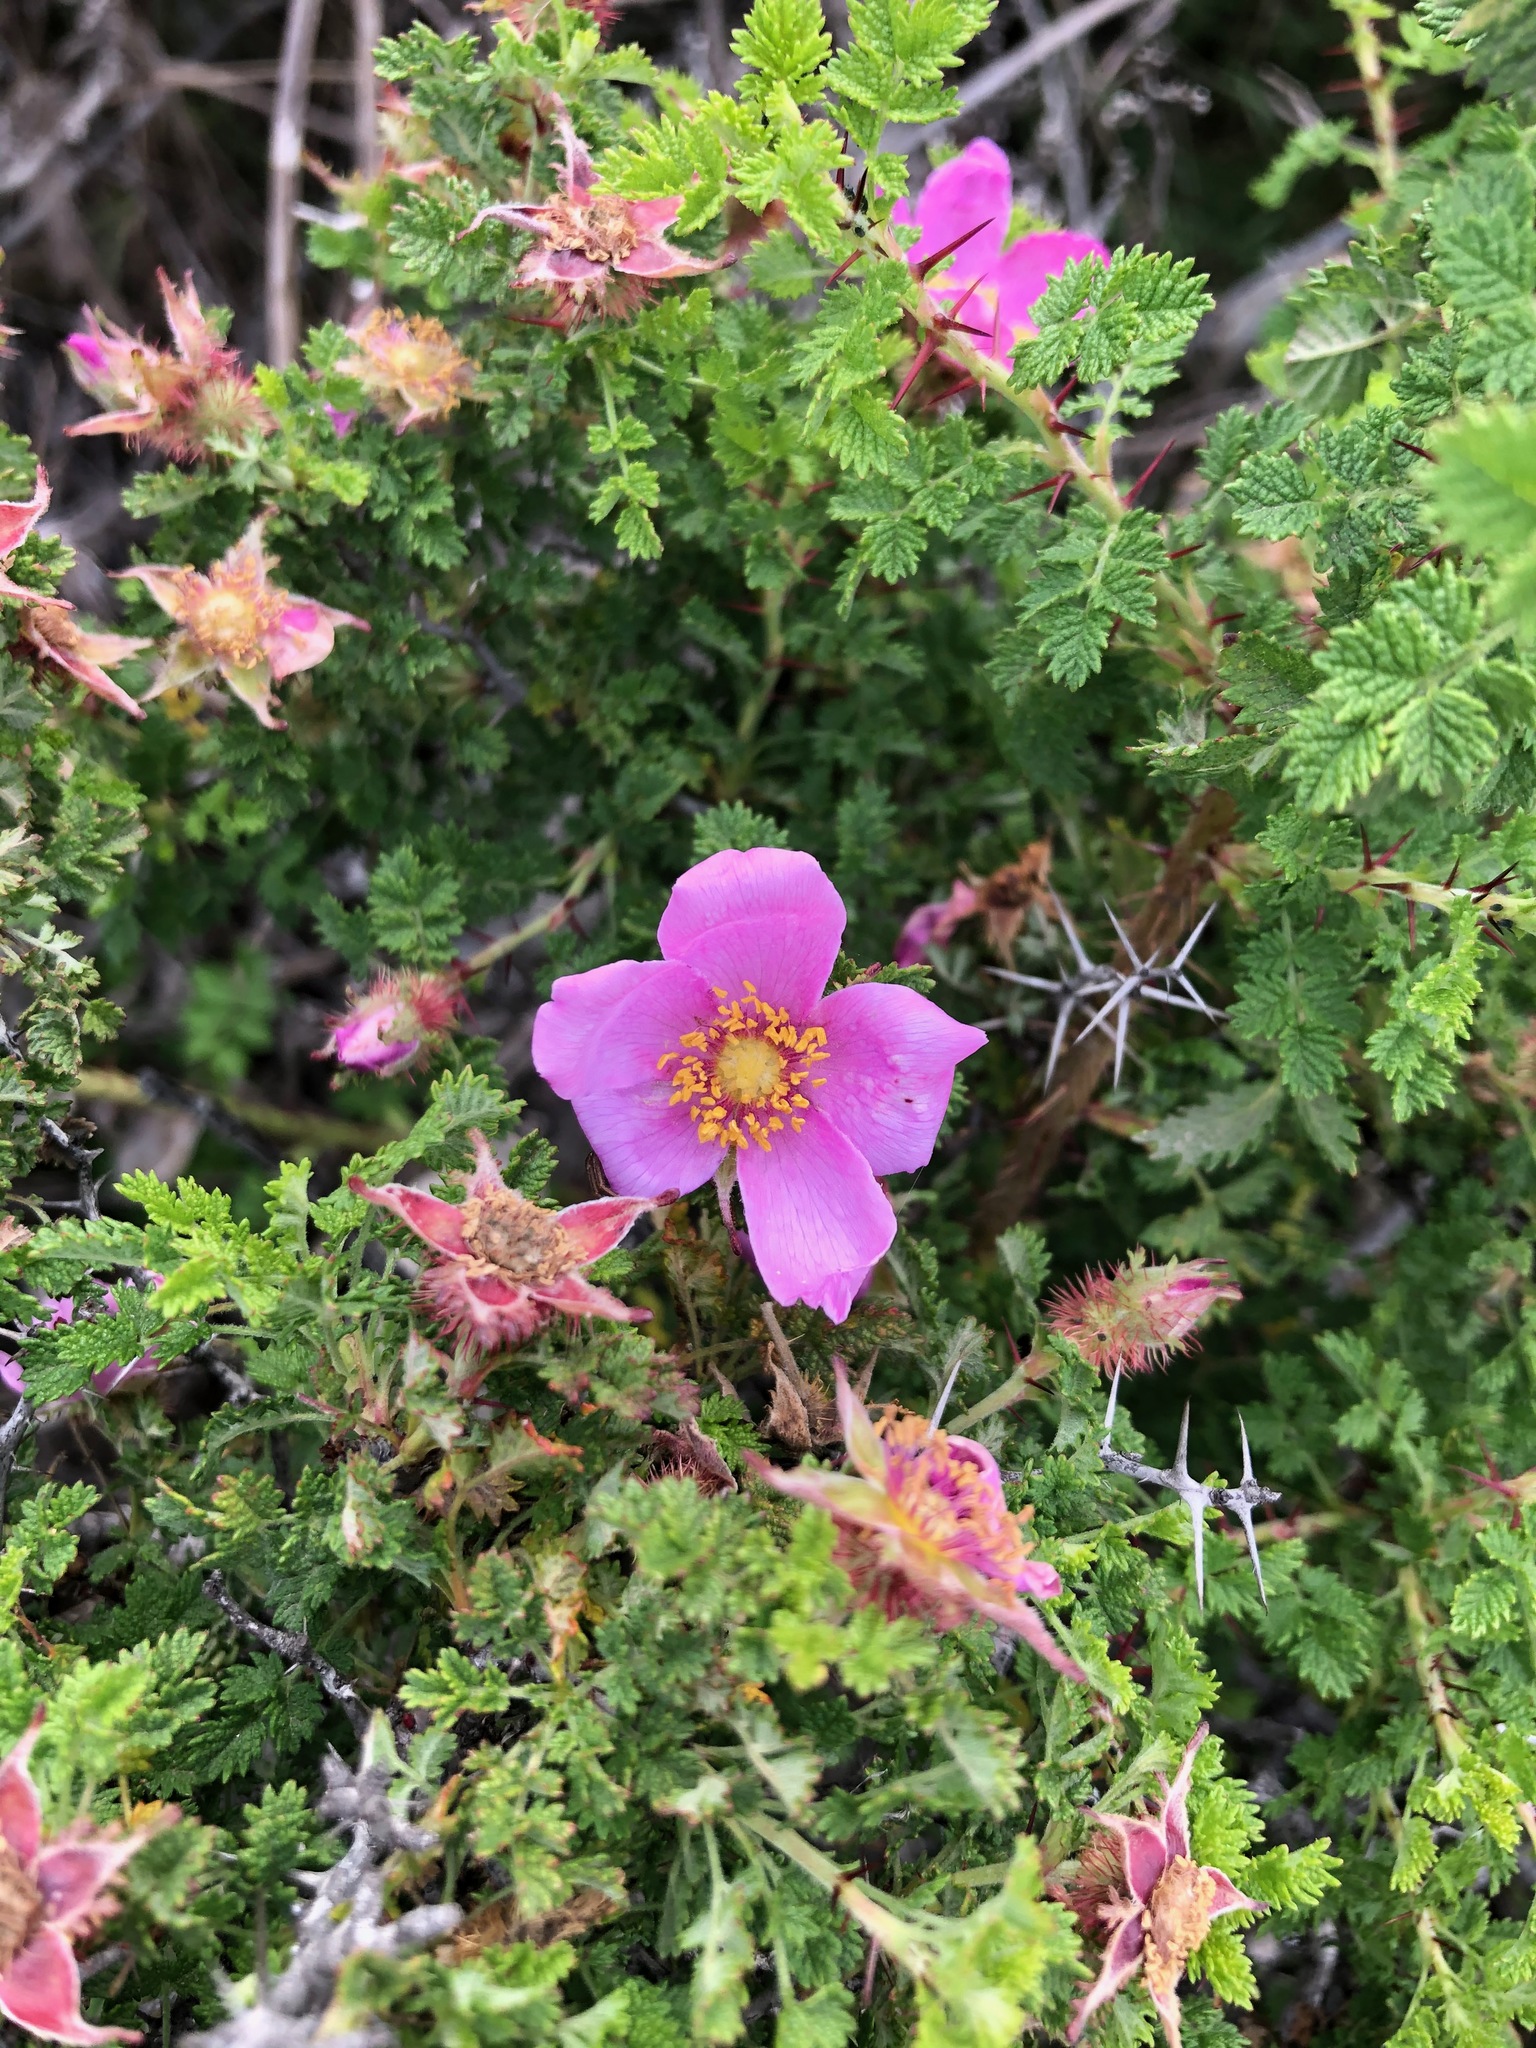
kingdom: Plantae
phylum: Tracheophyta
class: Magnoliopsida
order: Rosales
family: Rosaceae
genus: Rosa
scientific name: Rosa minutifolia
